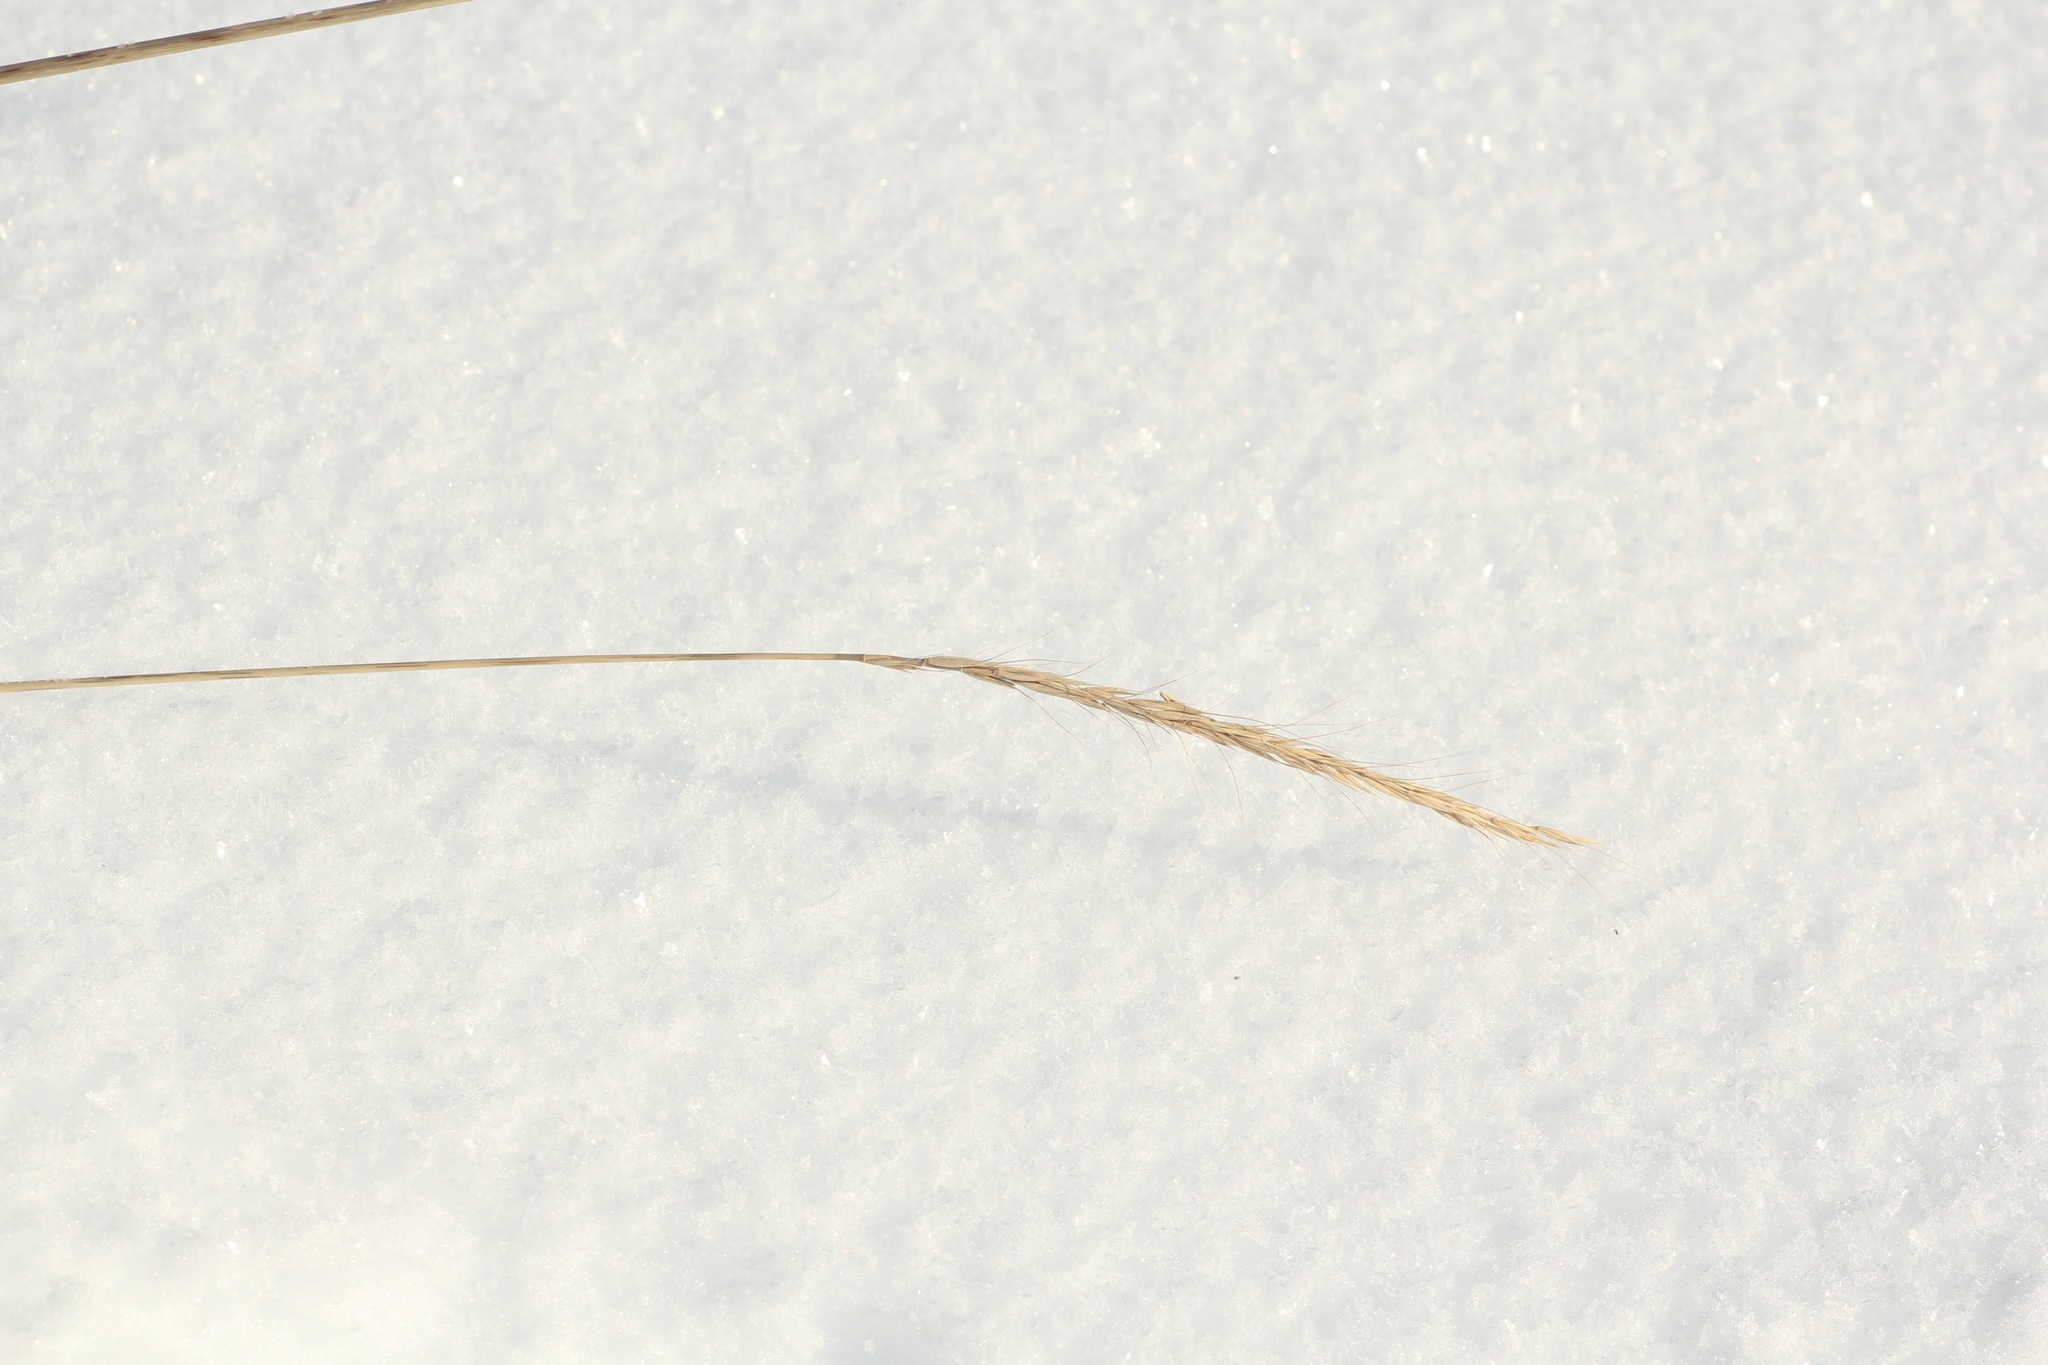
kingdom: Plantae
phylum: Tracheophyta
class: Liliopsida
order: Poales
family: Poaceae
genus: Elymus
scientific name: Elymus gmelinii
